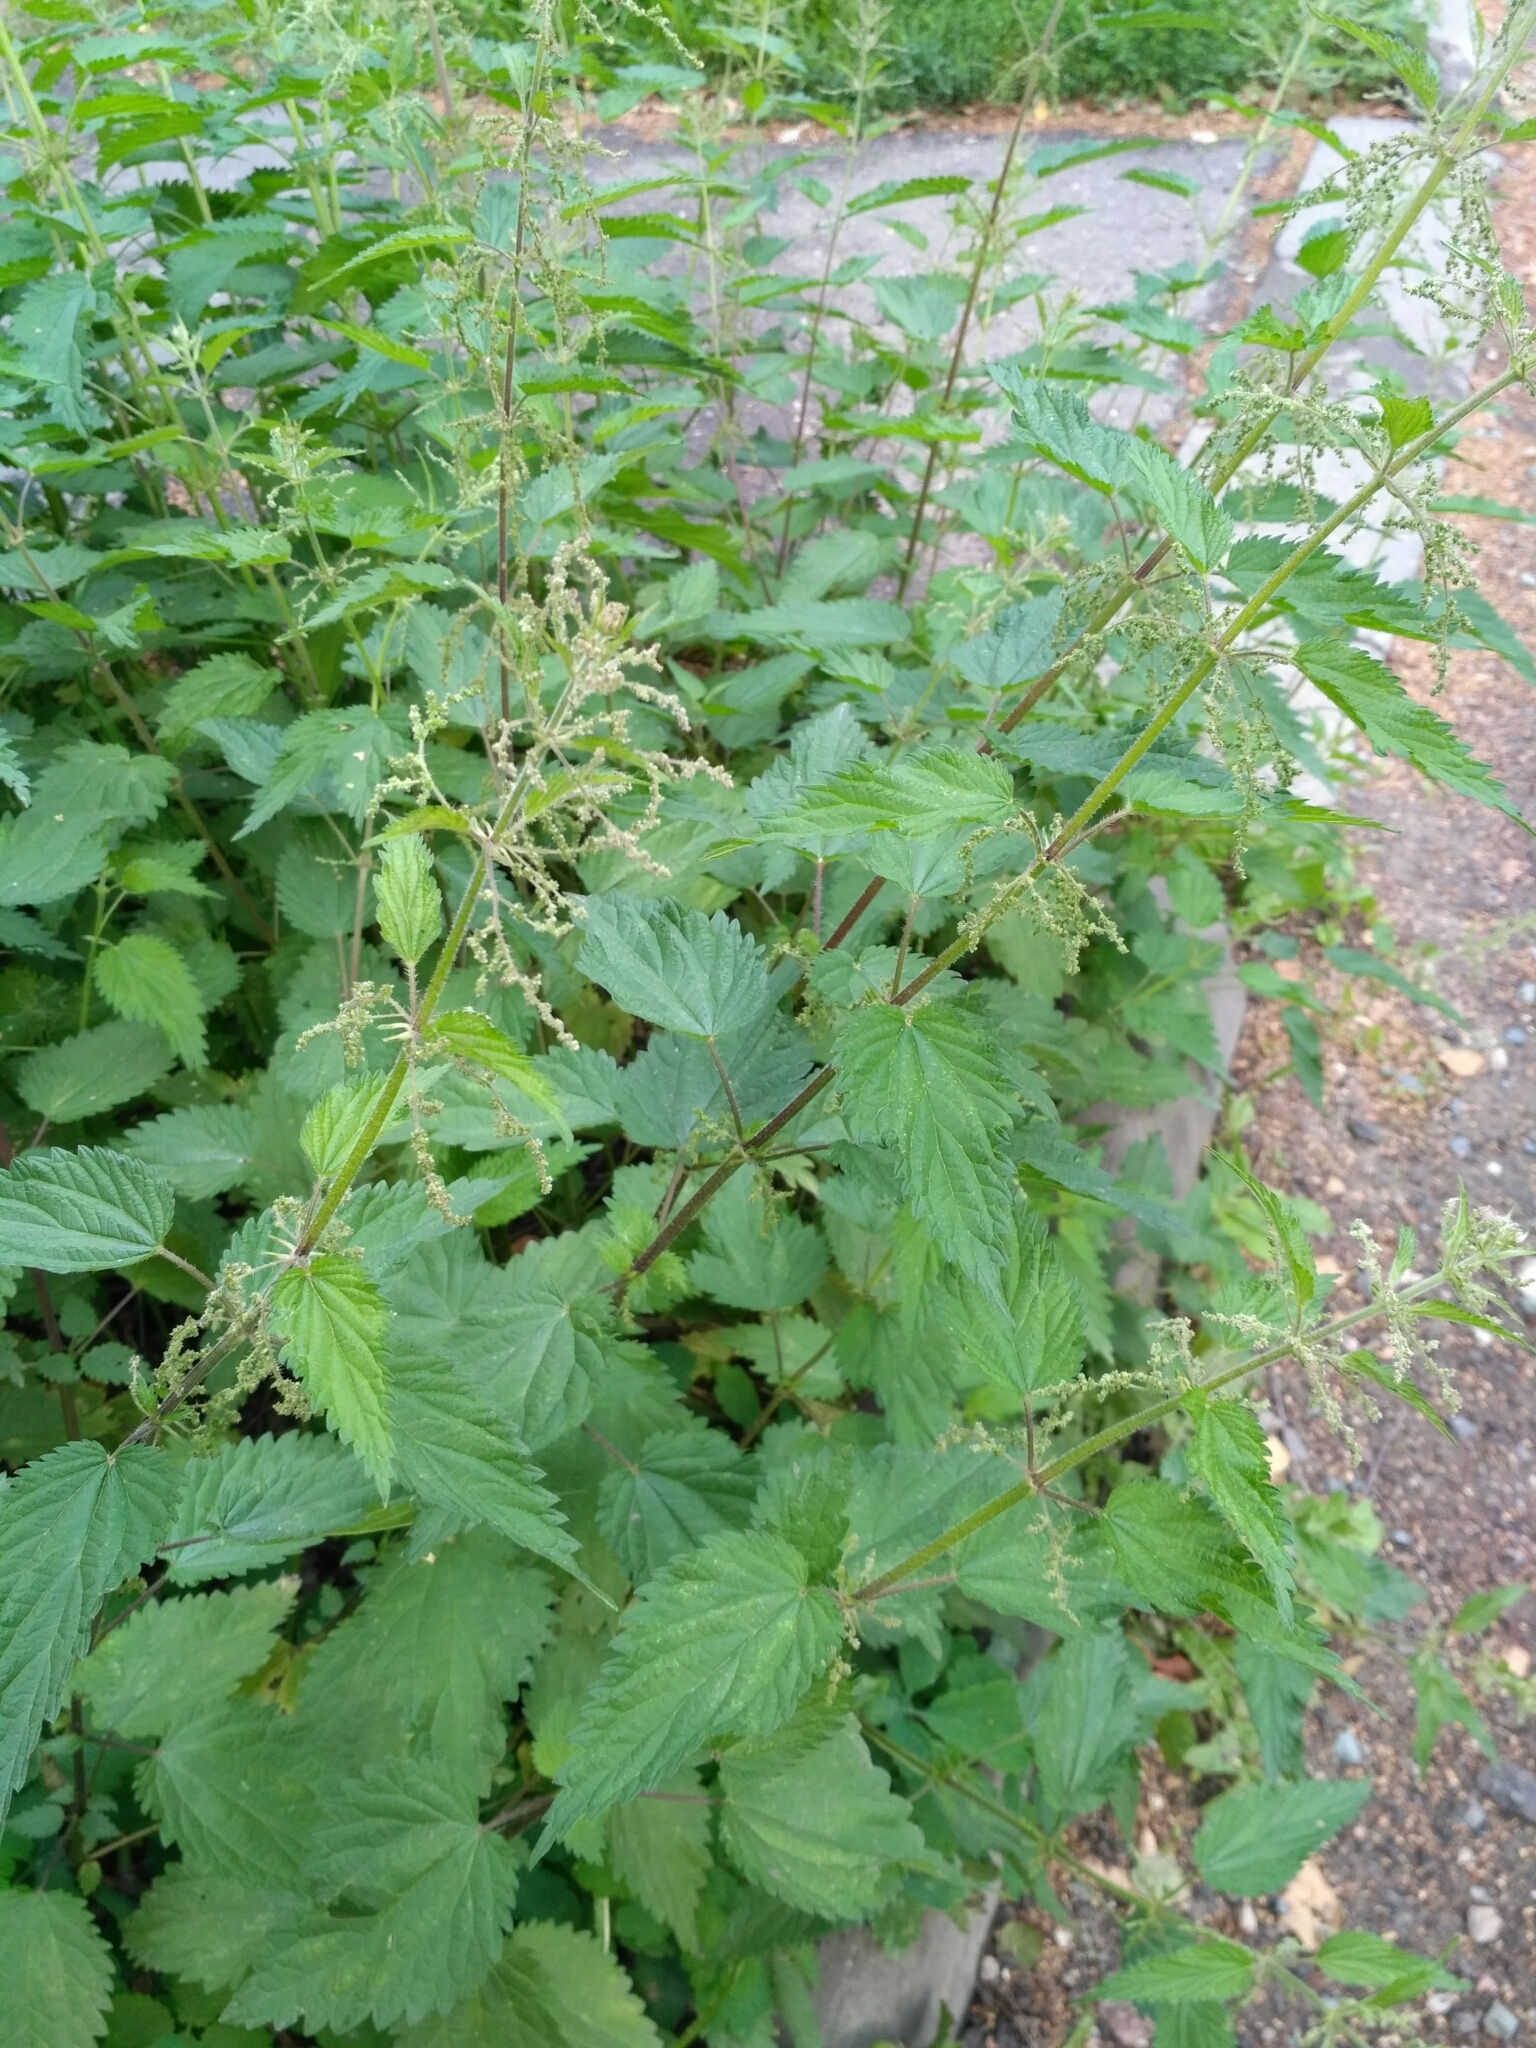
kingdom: Plantae
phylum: Tracheophyta
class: Magnoliopsida
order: Rosales
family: Urticaceae
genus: Urtica
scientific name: Urtica dioica
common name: Common nettle
